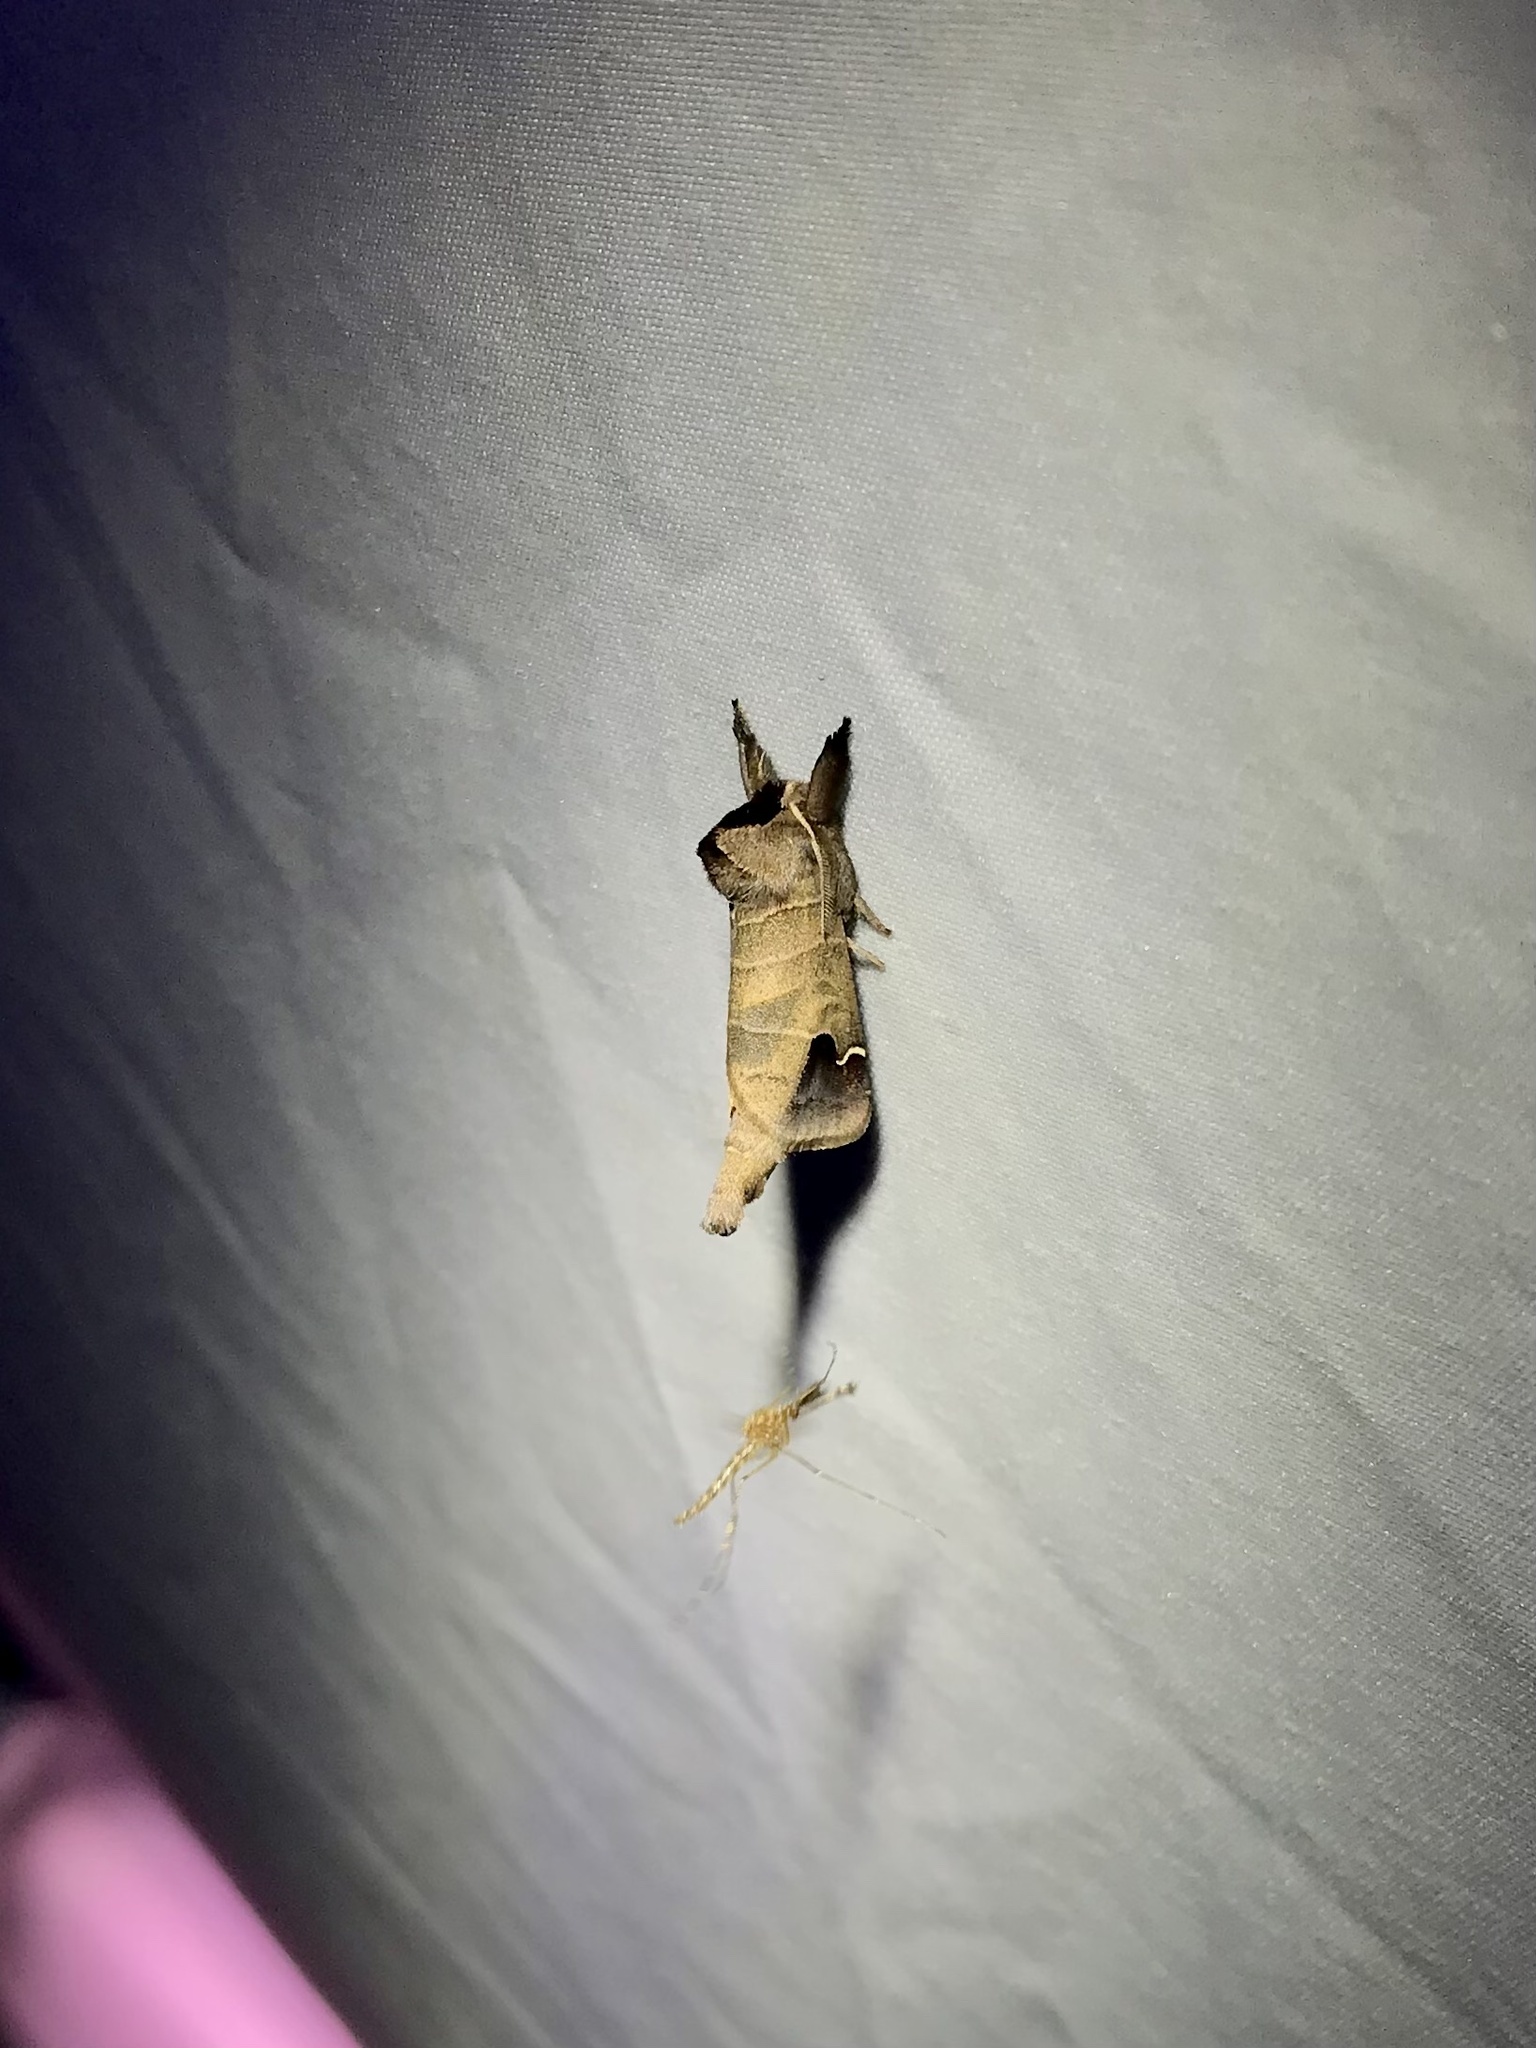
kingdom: Animalia
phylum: Arthropoda
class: Insecta
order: Lepidoptera
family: Notodontidae
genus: Clostera
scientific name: Clostera albosigma
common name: Sigmoid prominent
